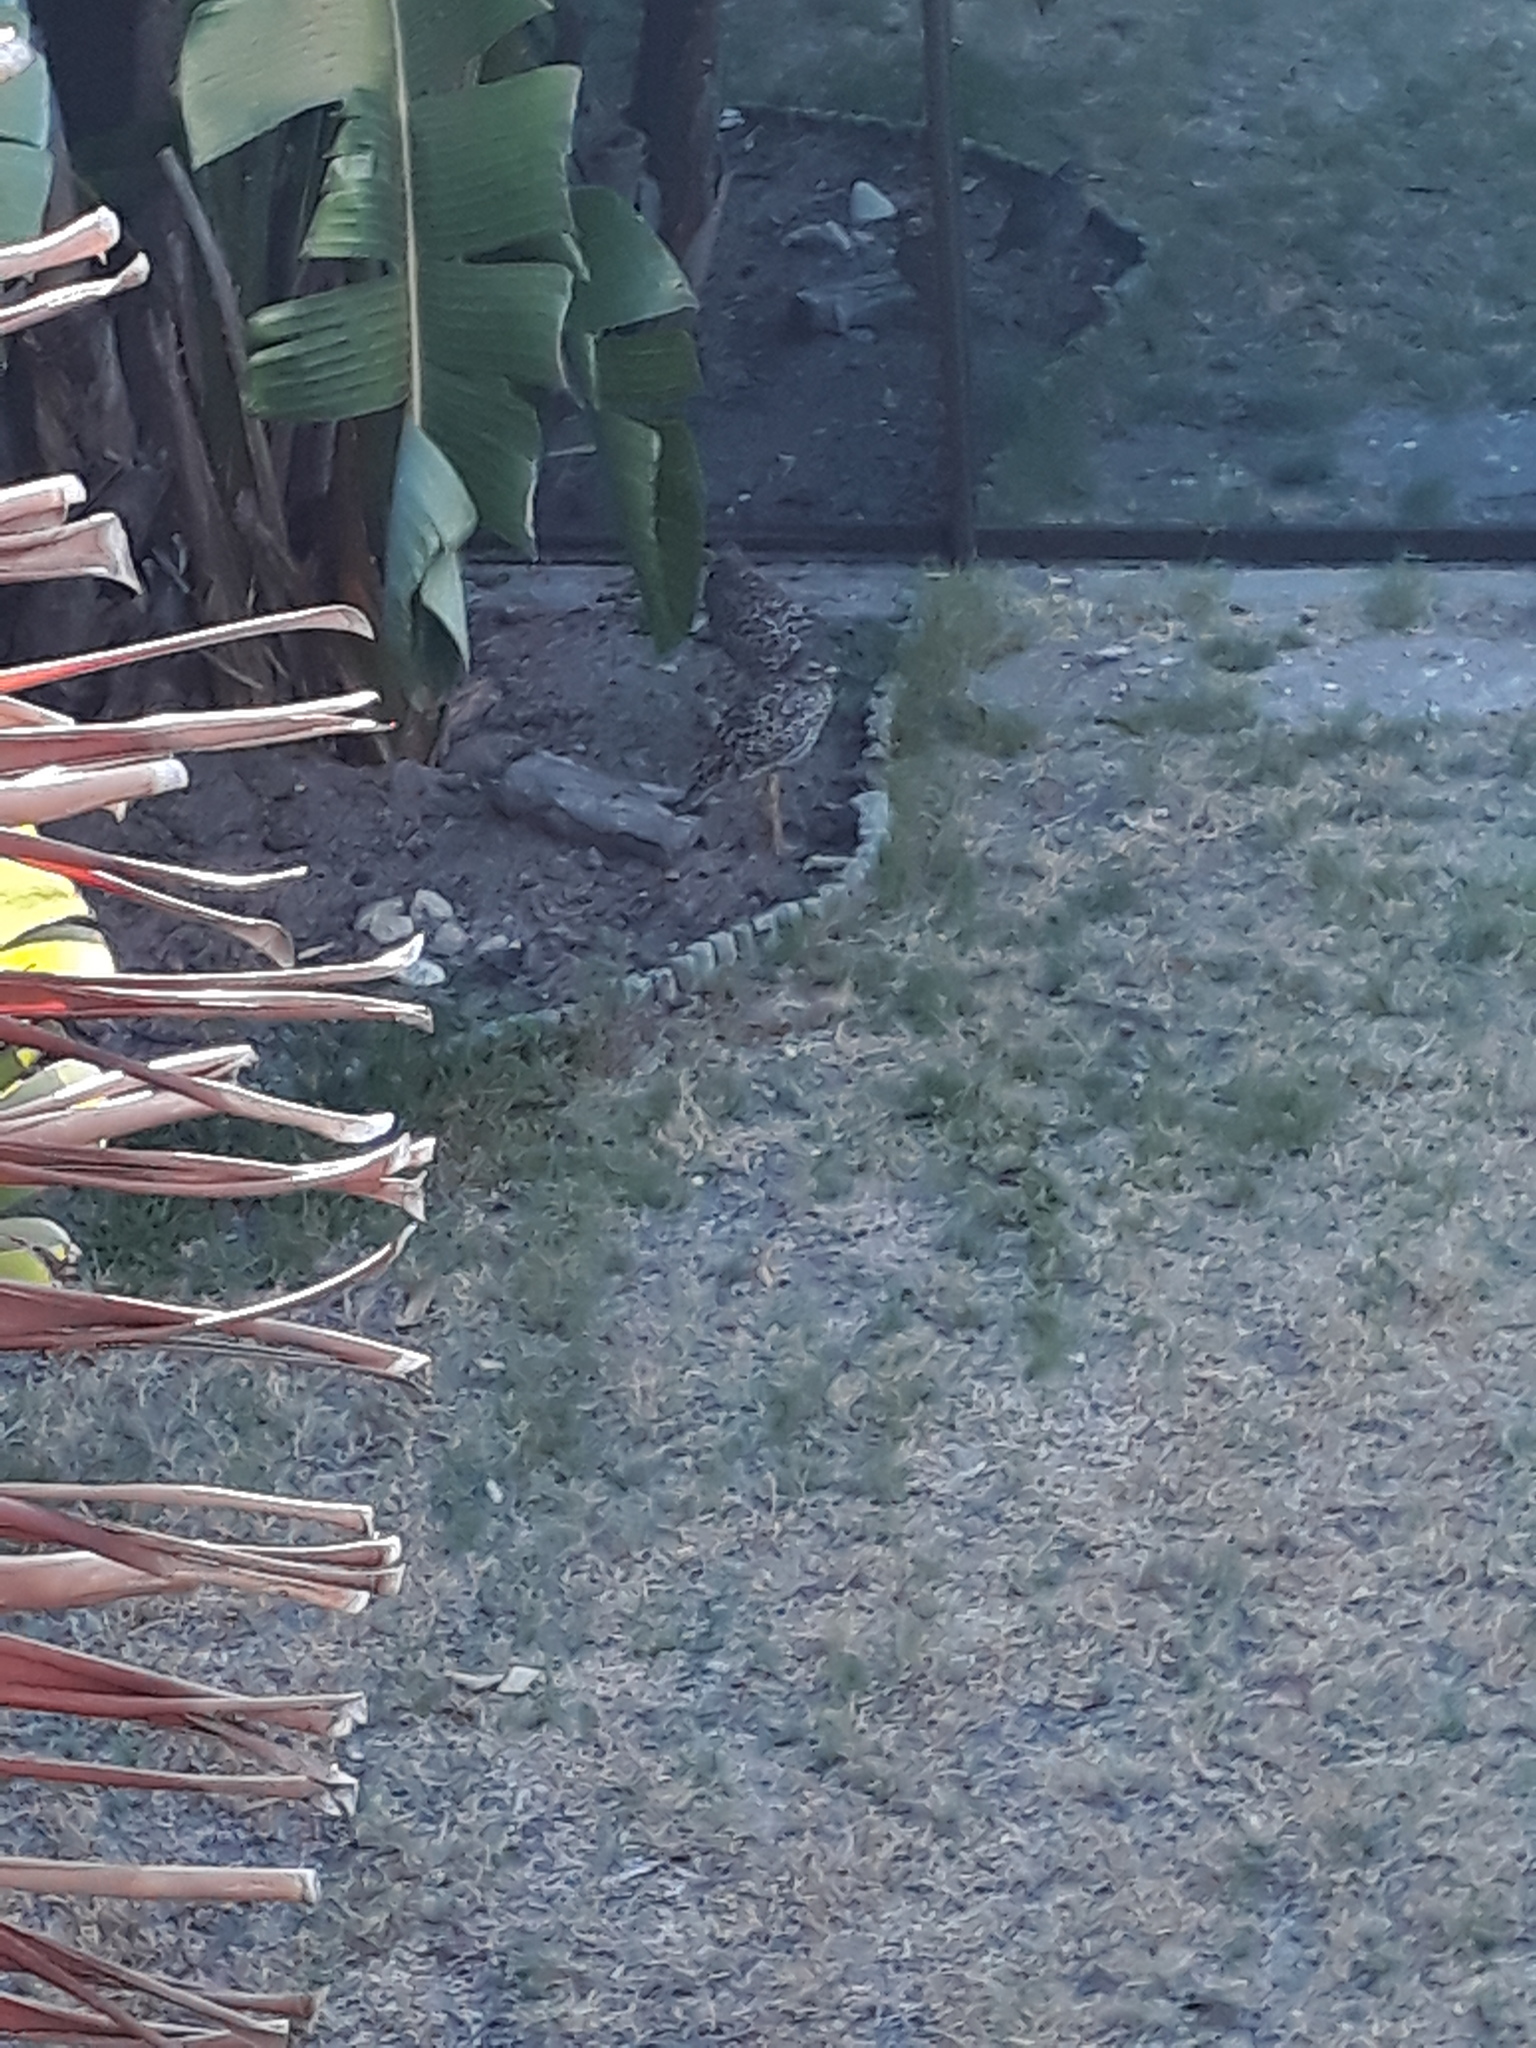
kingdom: Animalia
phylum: Chordata
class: Aves
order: Charadriiformes
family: Burhinidae
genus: Burhinus
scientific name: Burhinus capensis
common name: Spotted thick-knee
